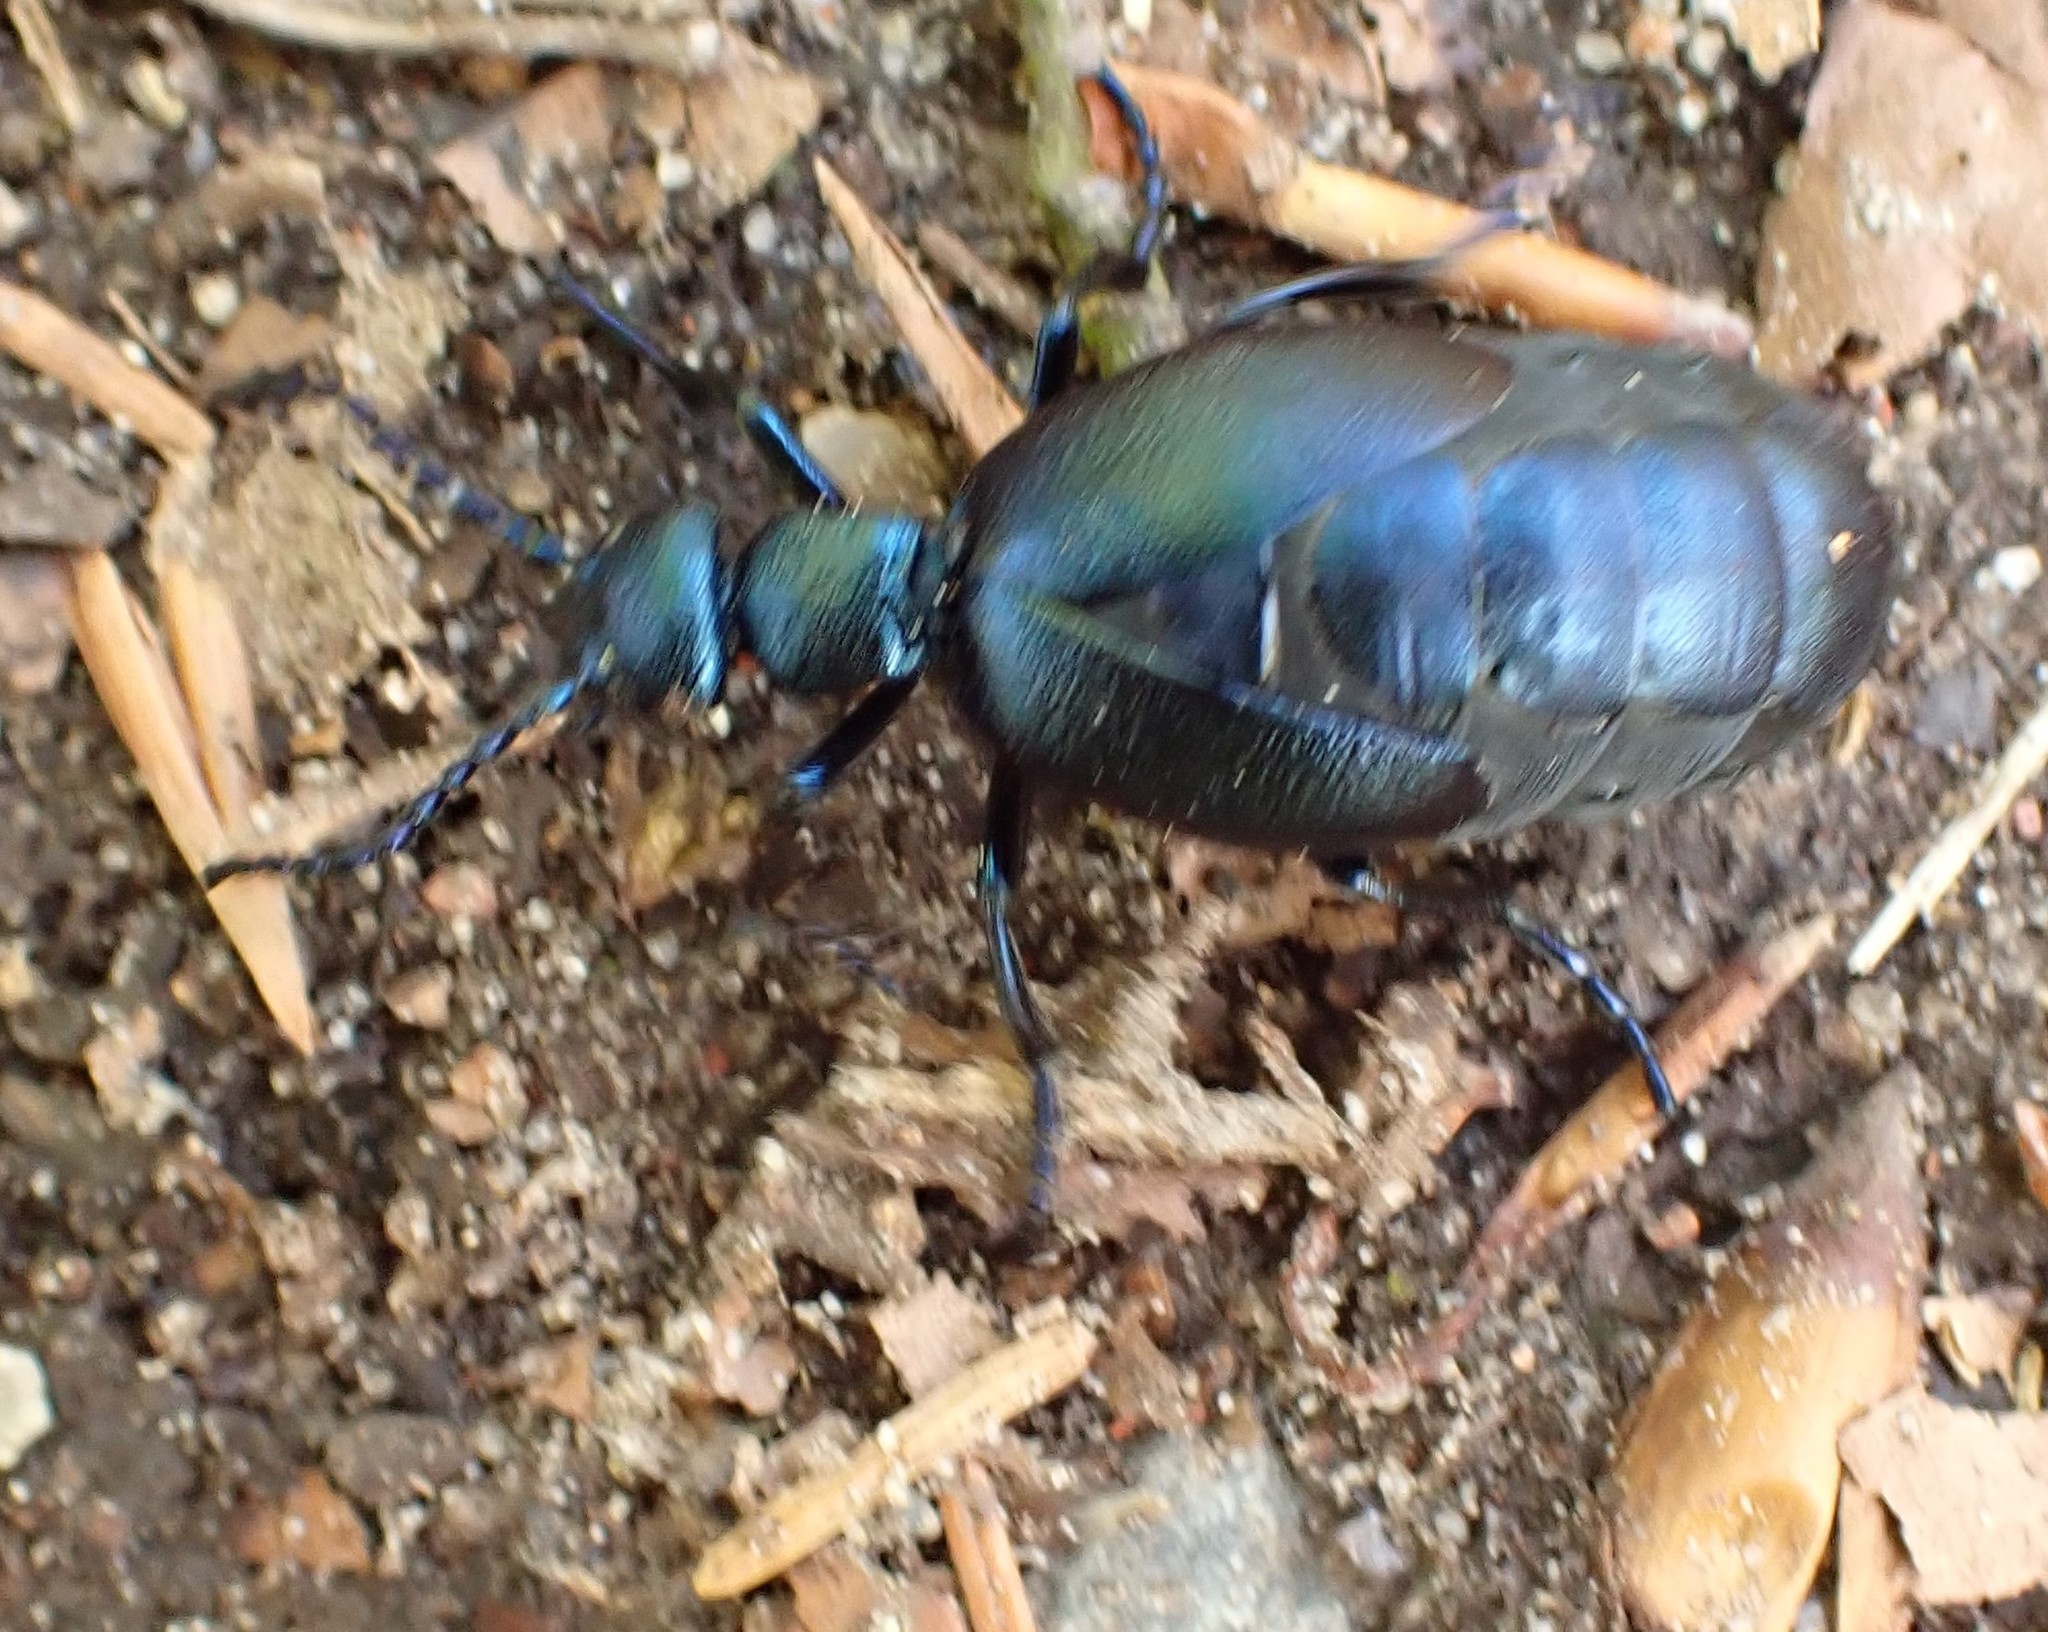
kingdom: Animalia
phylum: Arthropoda
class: Insecta
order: Coleoptera
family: Meloidae
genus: Meloe
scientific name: Meloe violaceus
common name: Violet oil-beetle
